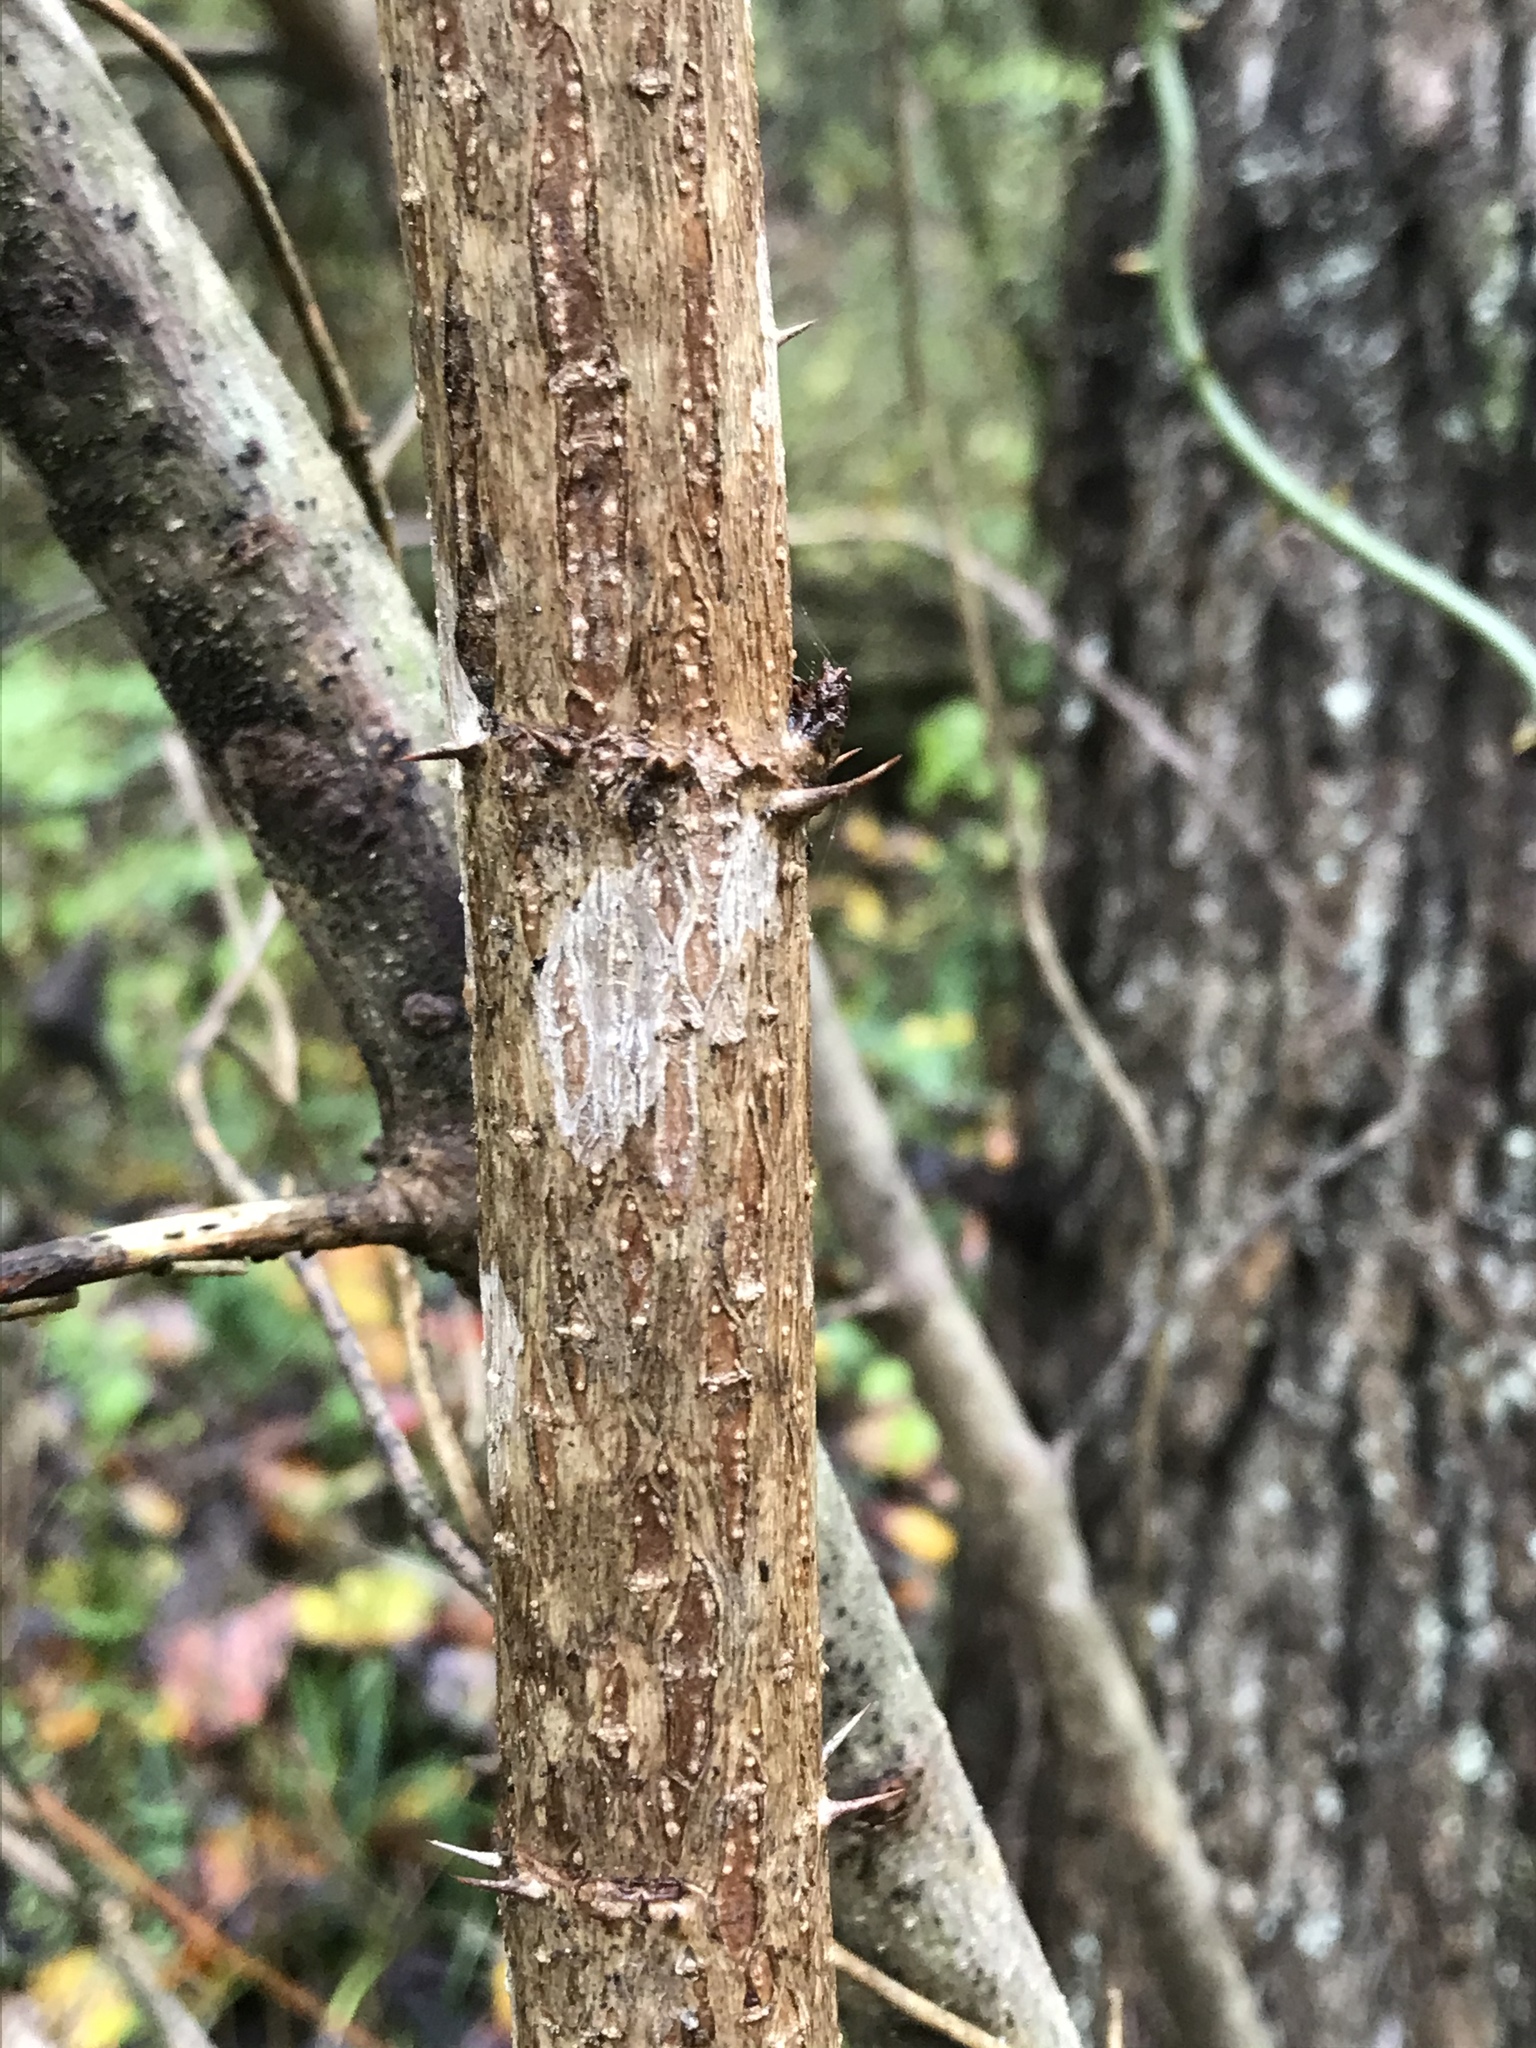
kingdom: Plantae
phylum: Tracheophyta
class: Magnoliopsida
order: Apiales
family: Araliaceae
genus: Aralia
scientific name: Aralia spinosa
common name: Hercules'-club
